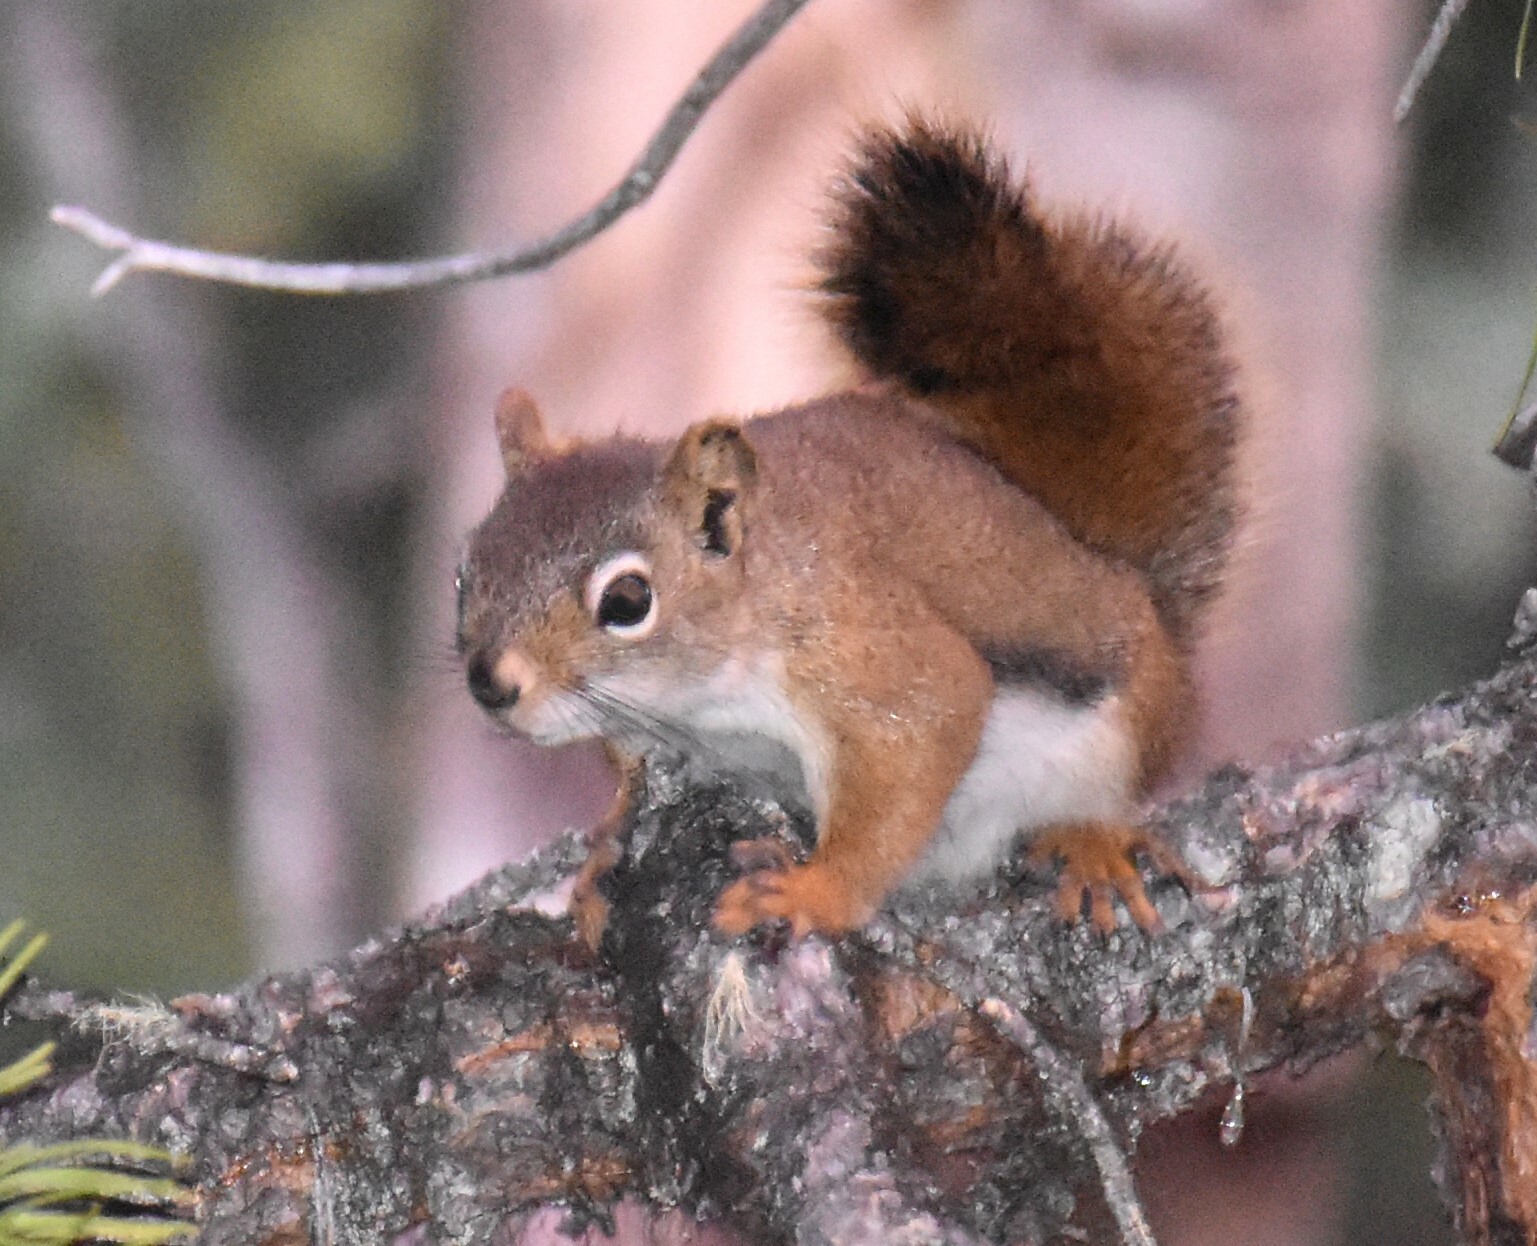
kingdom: Animalia
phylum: Chordata
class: Mammalia
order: Rodentia
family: Sciuridae
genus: Tamiasciurus
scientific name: Tamiasciurus hudsonicus
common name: Red squirrel
